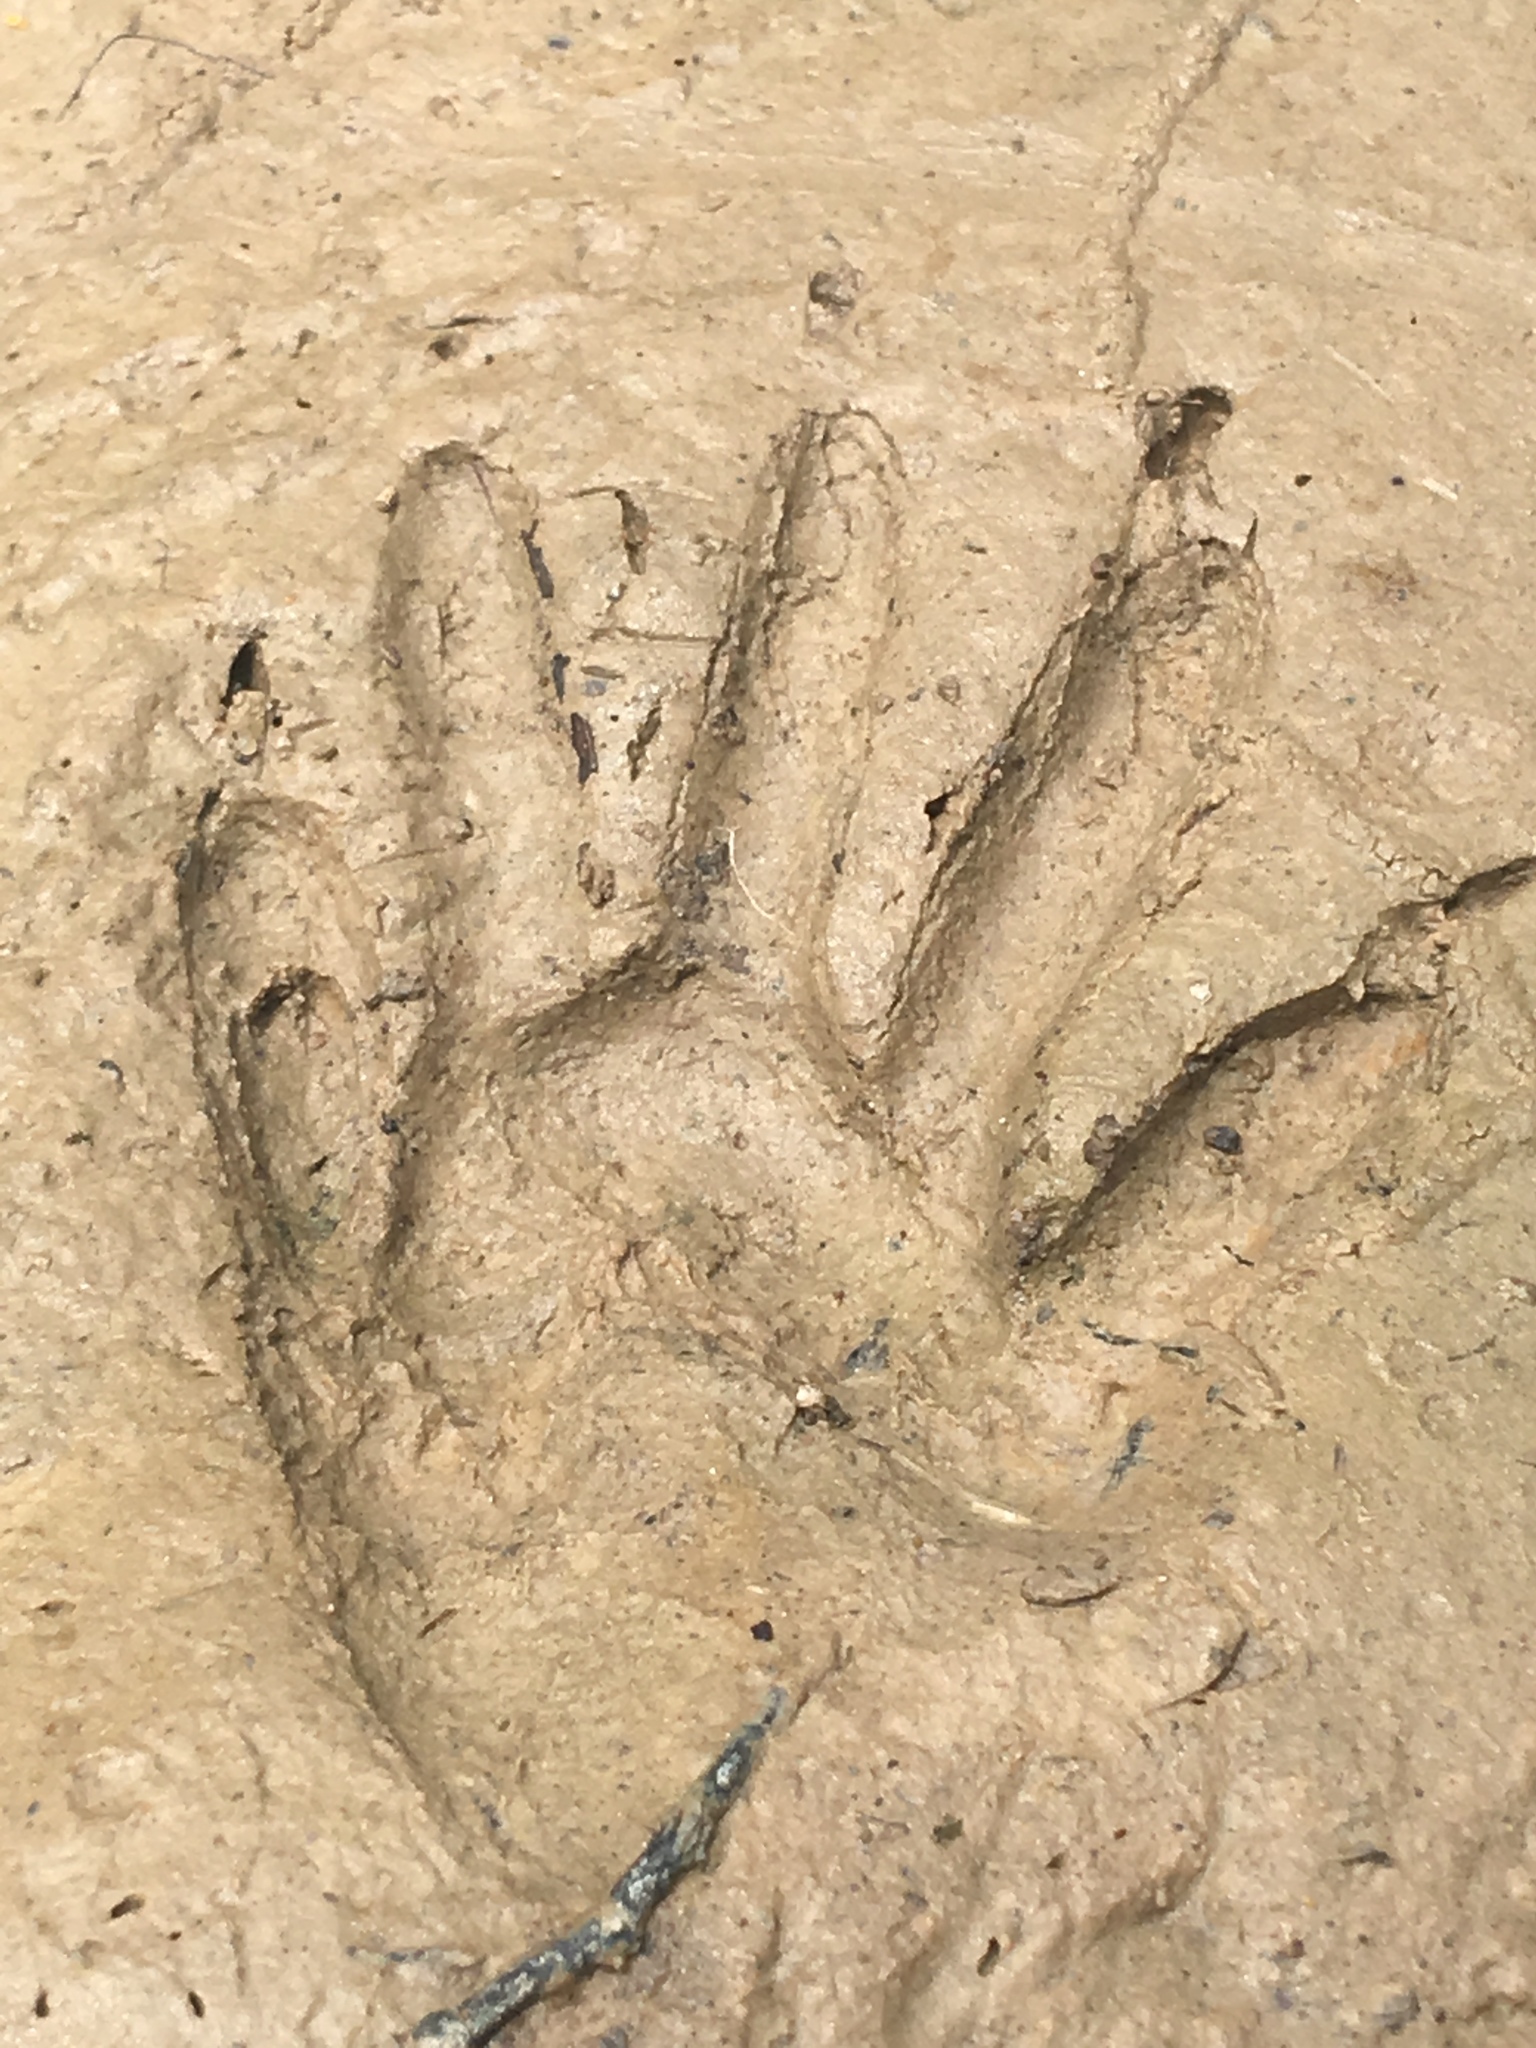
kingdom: Animalia
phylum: Chordata
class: Mammalia
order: Carnivora
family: Procyonidae
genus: Procyon
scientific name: Procyon lotor
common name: Raccoon
